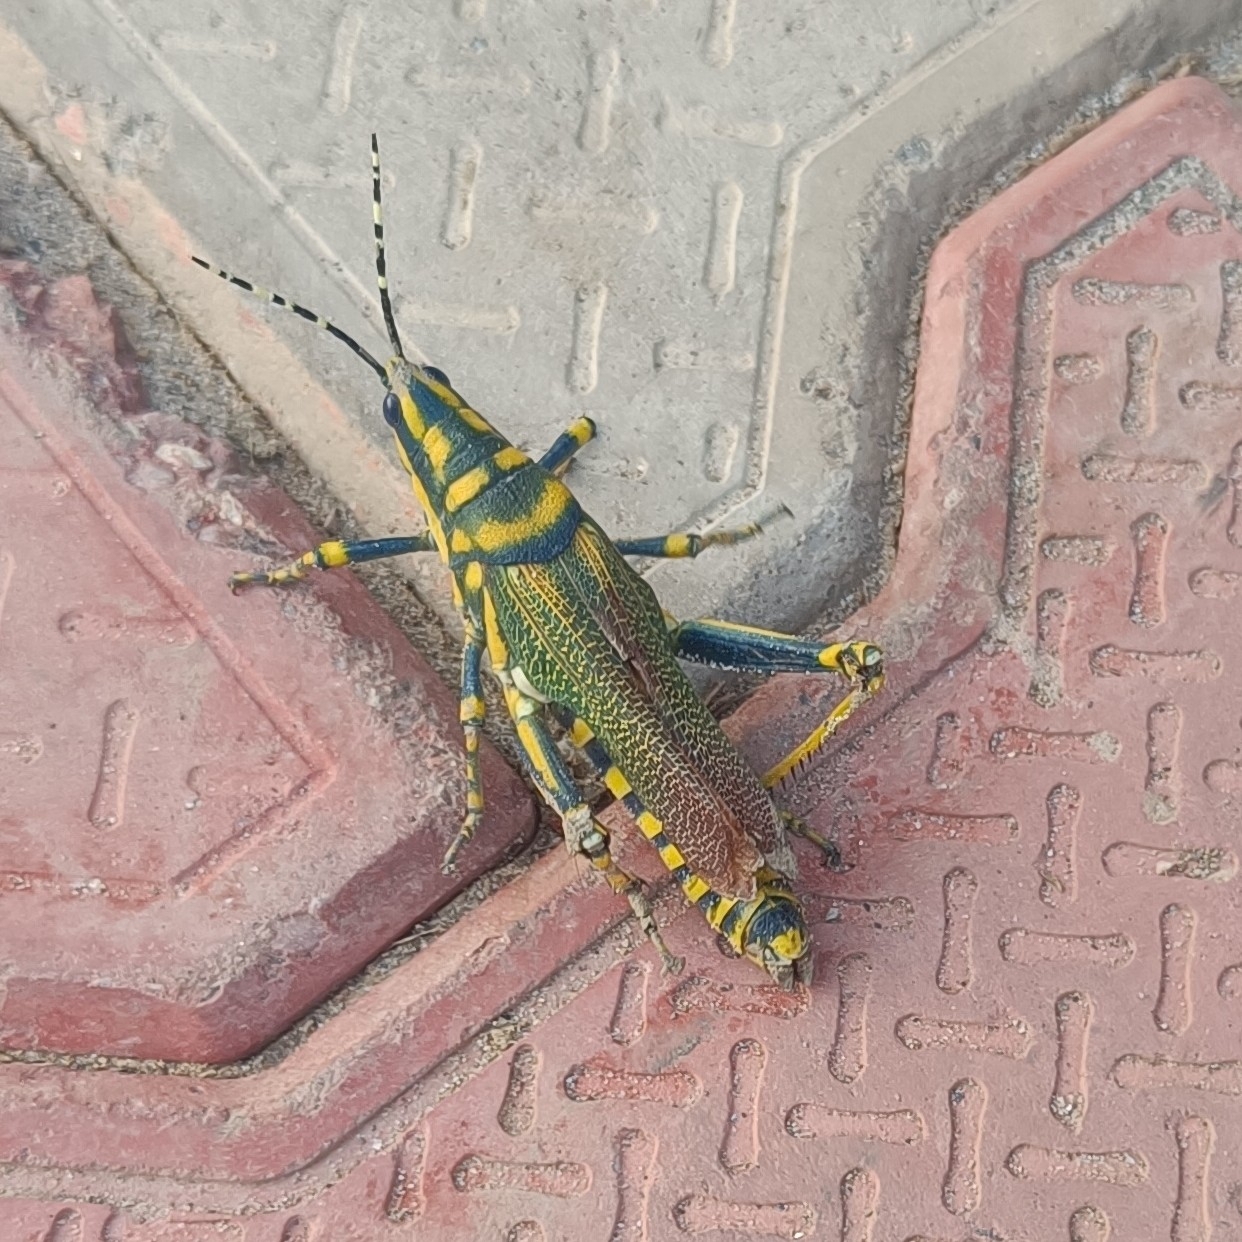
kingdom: Animalia
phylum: Arthropoda
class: Insecta
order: Orthoptera
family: Pyrgomorphidae
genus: Poekilocerus
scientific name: Poekilocerus pictus
